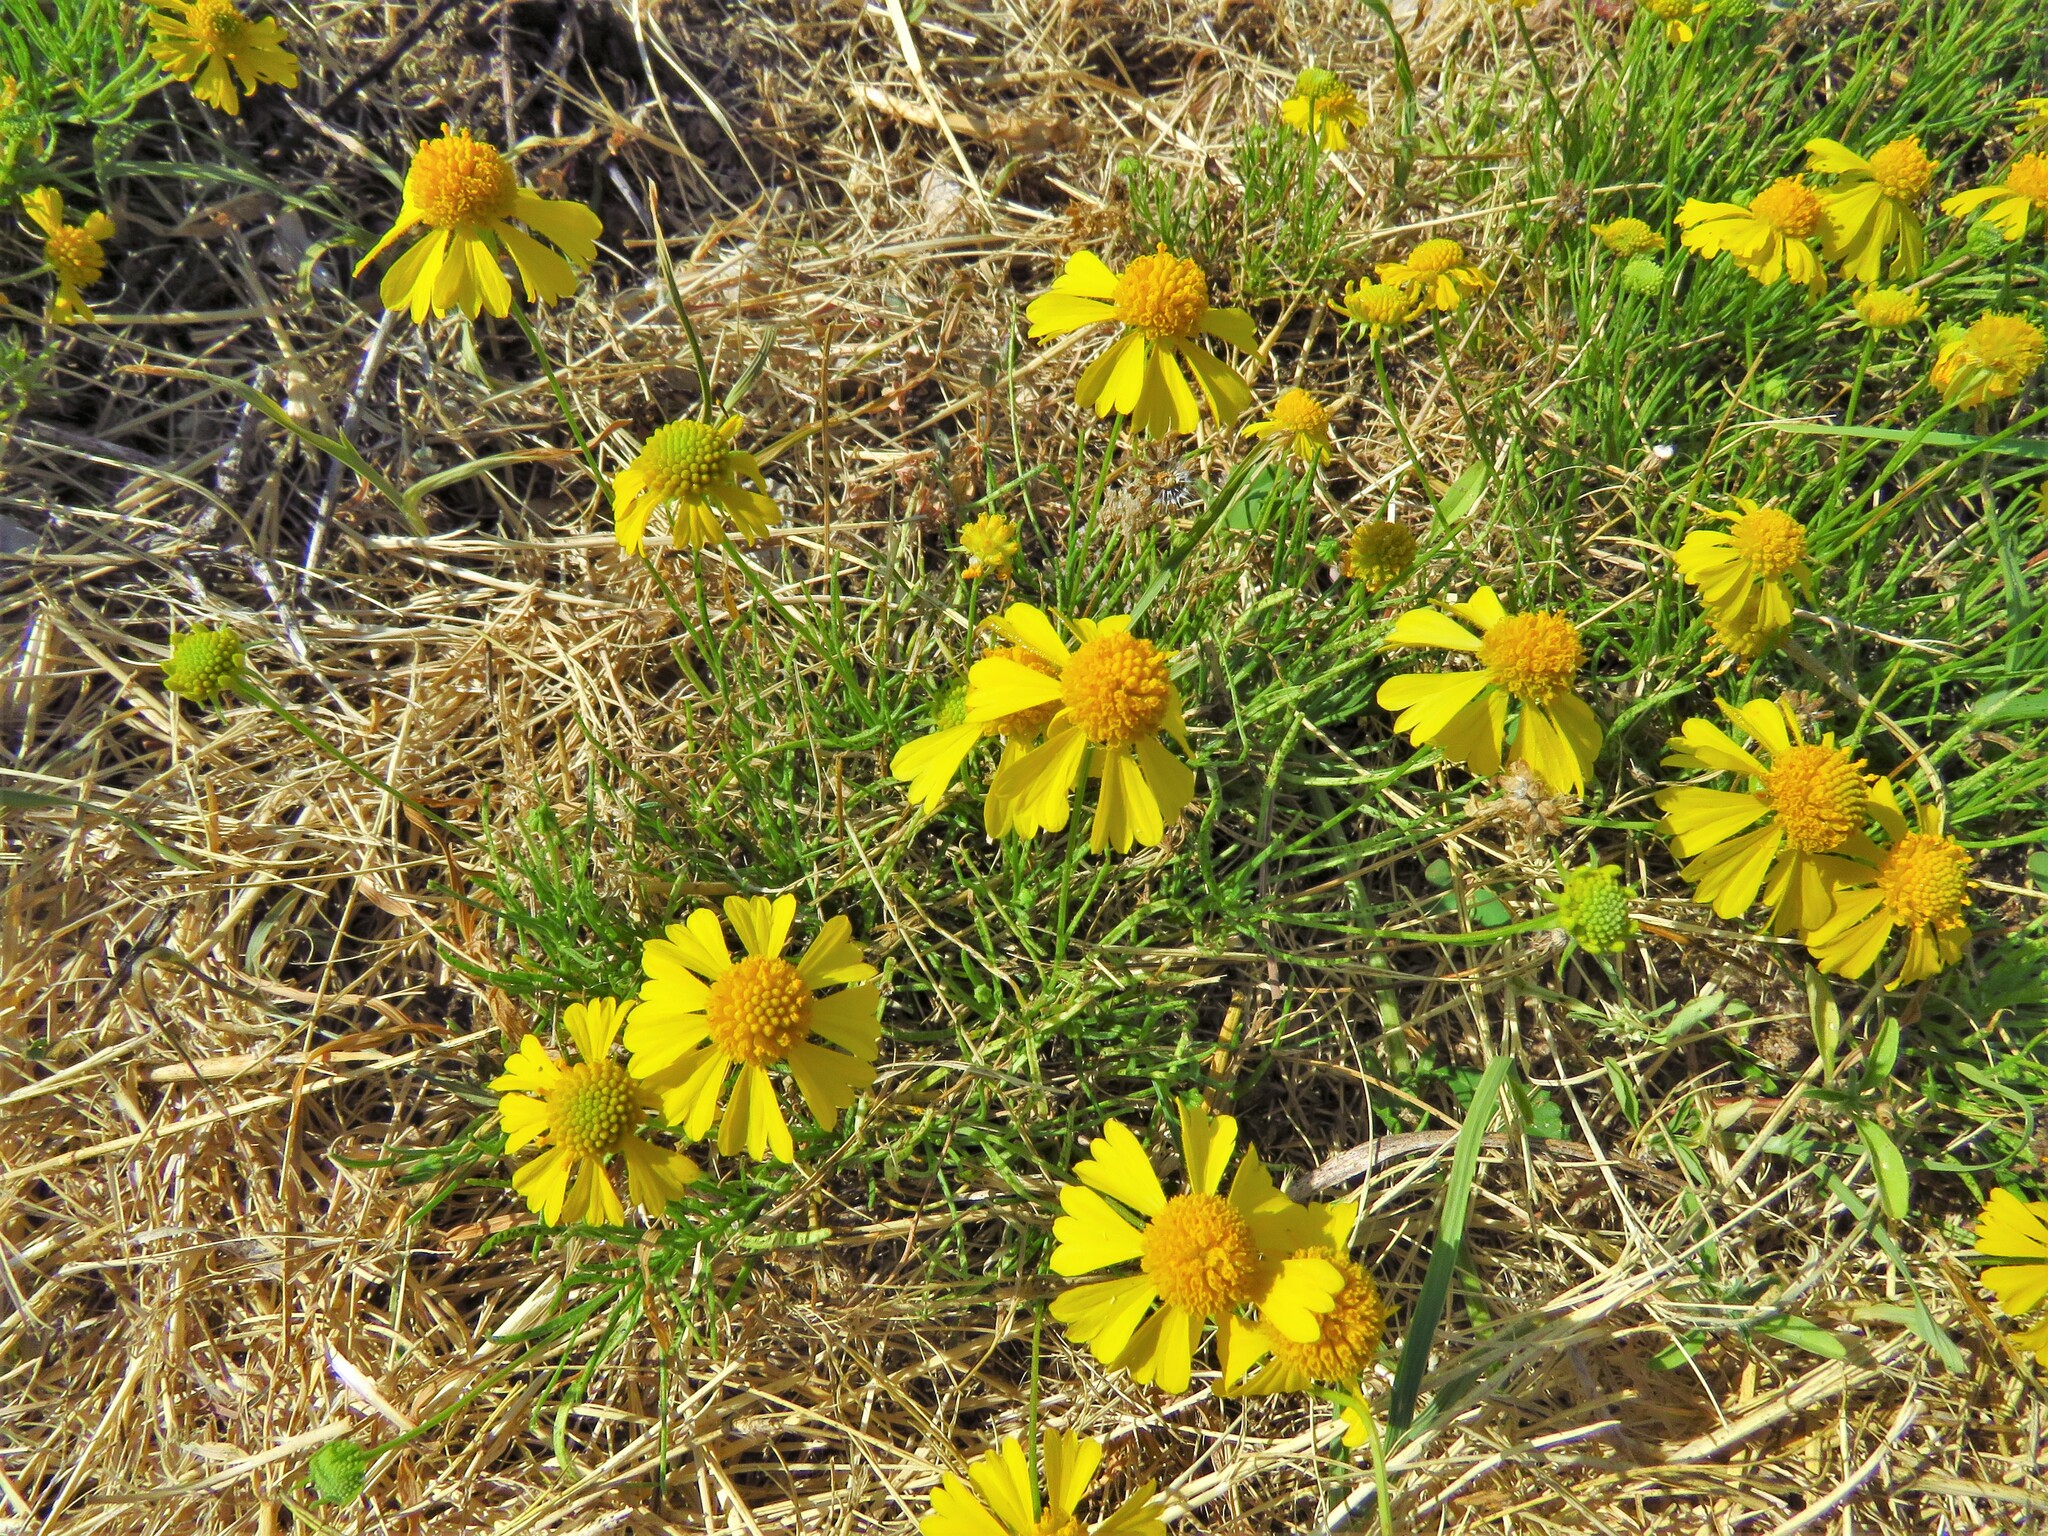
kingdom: Plantae
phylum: Tracheophyta
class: Magnoliopsida
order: Asterales
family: Asteraceae
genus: Helenium
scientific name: Helenium amarum
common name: Bitter sneezeweed
